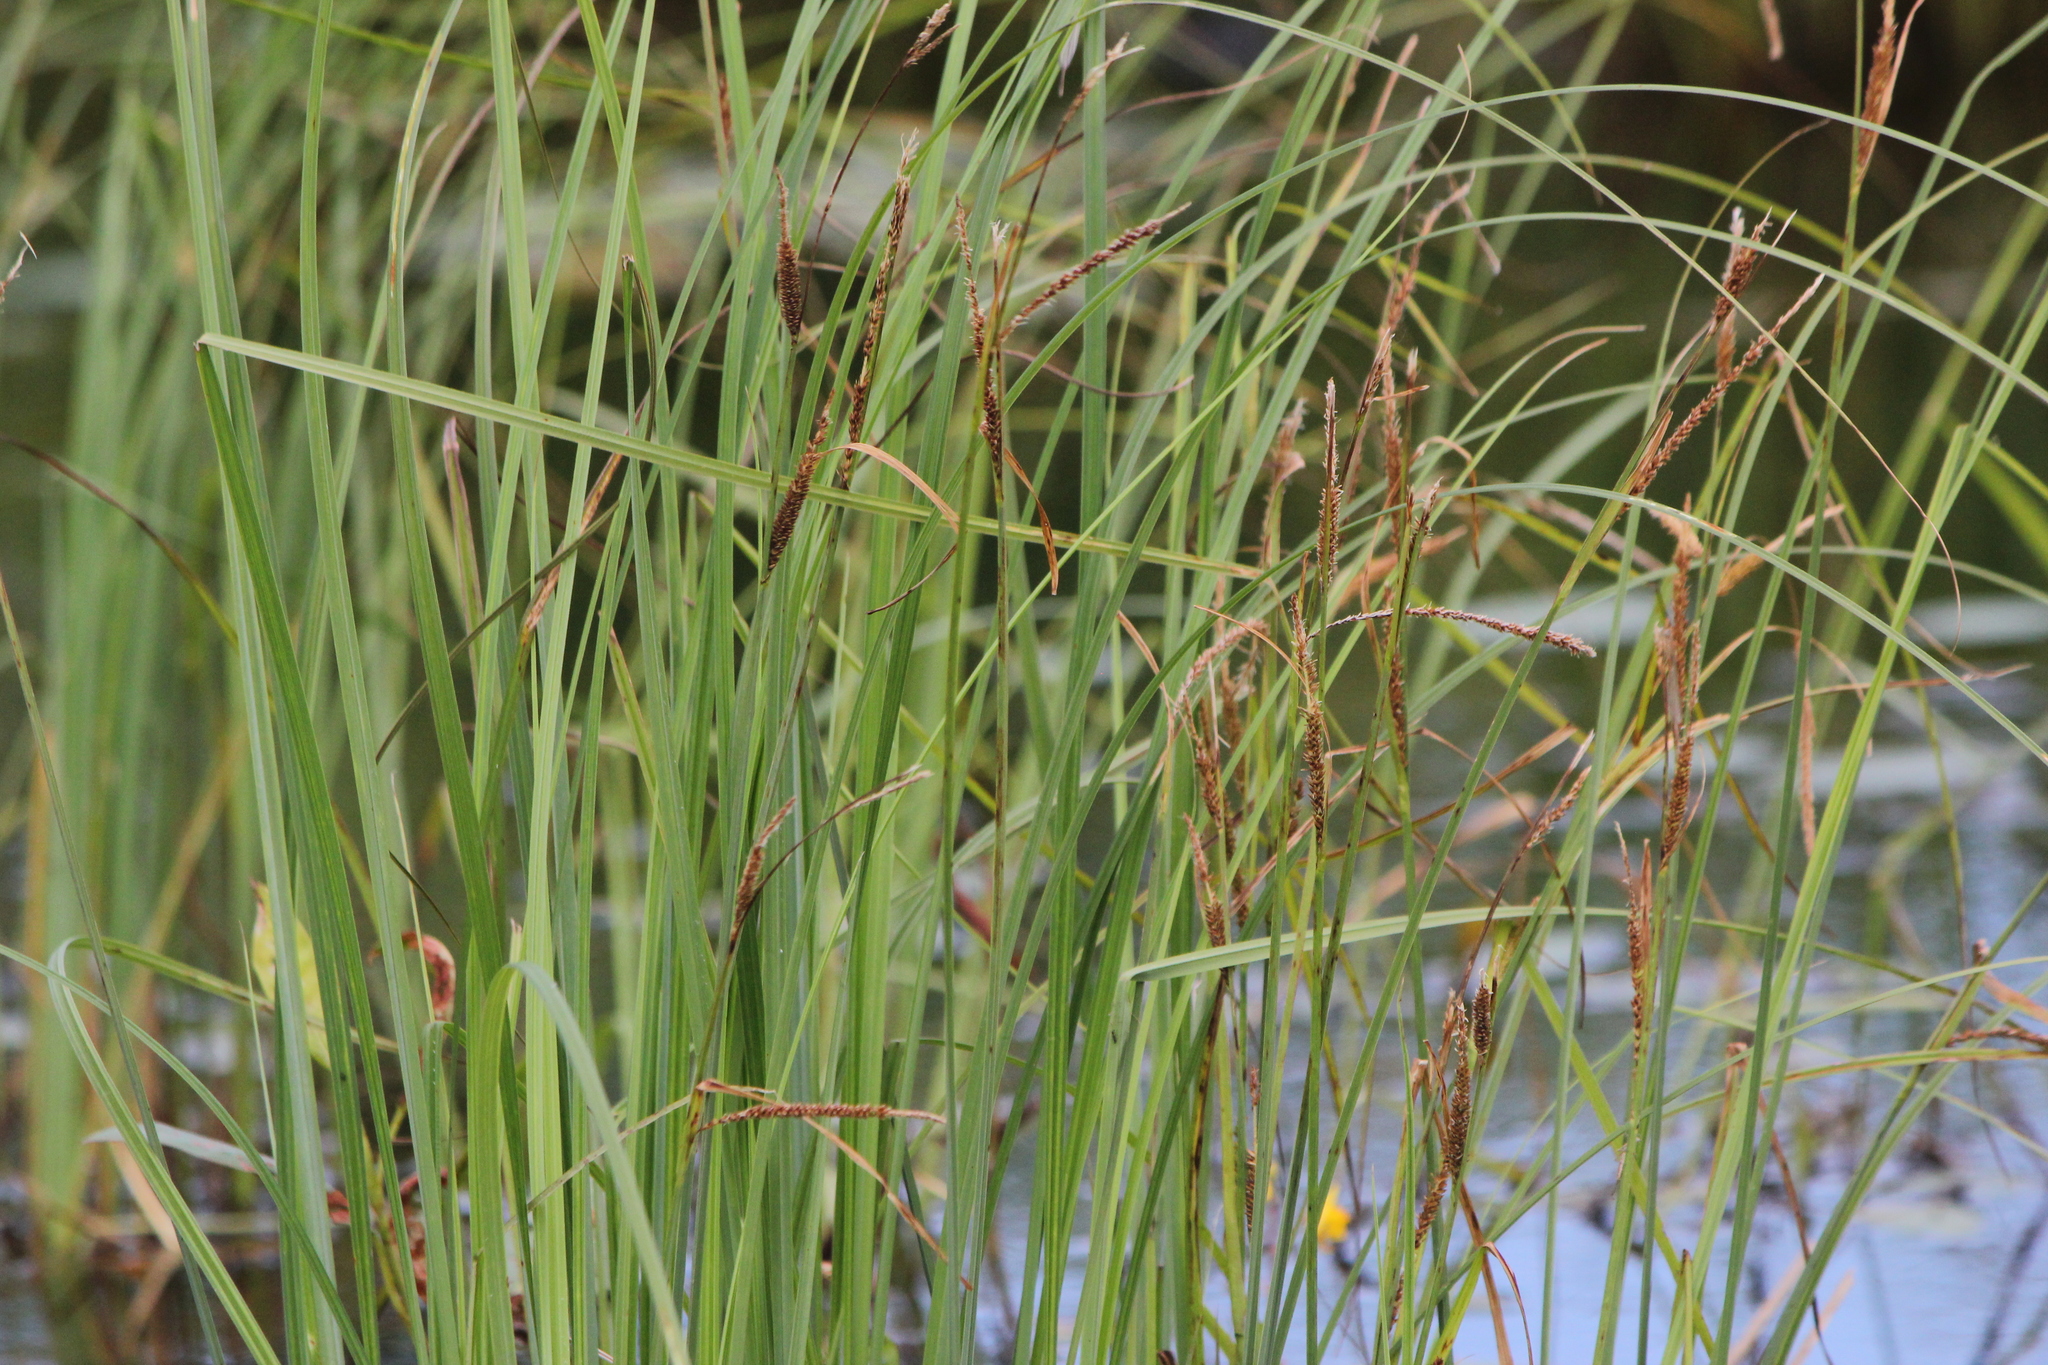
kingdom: Plantae
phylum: Tracheophyta
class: Liliopsida
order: Poales
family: Cyperaceae
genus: Carex
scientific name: Carex emoryi
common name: Emory's sedge
